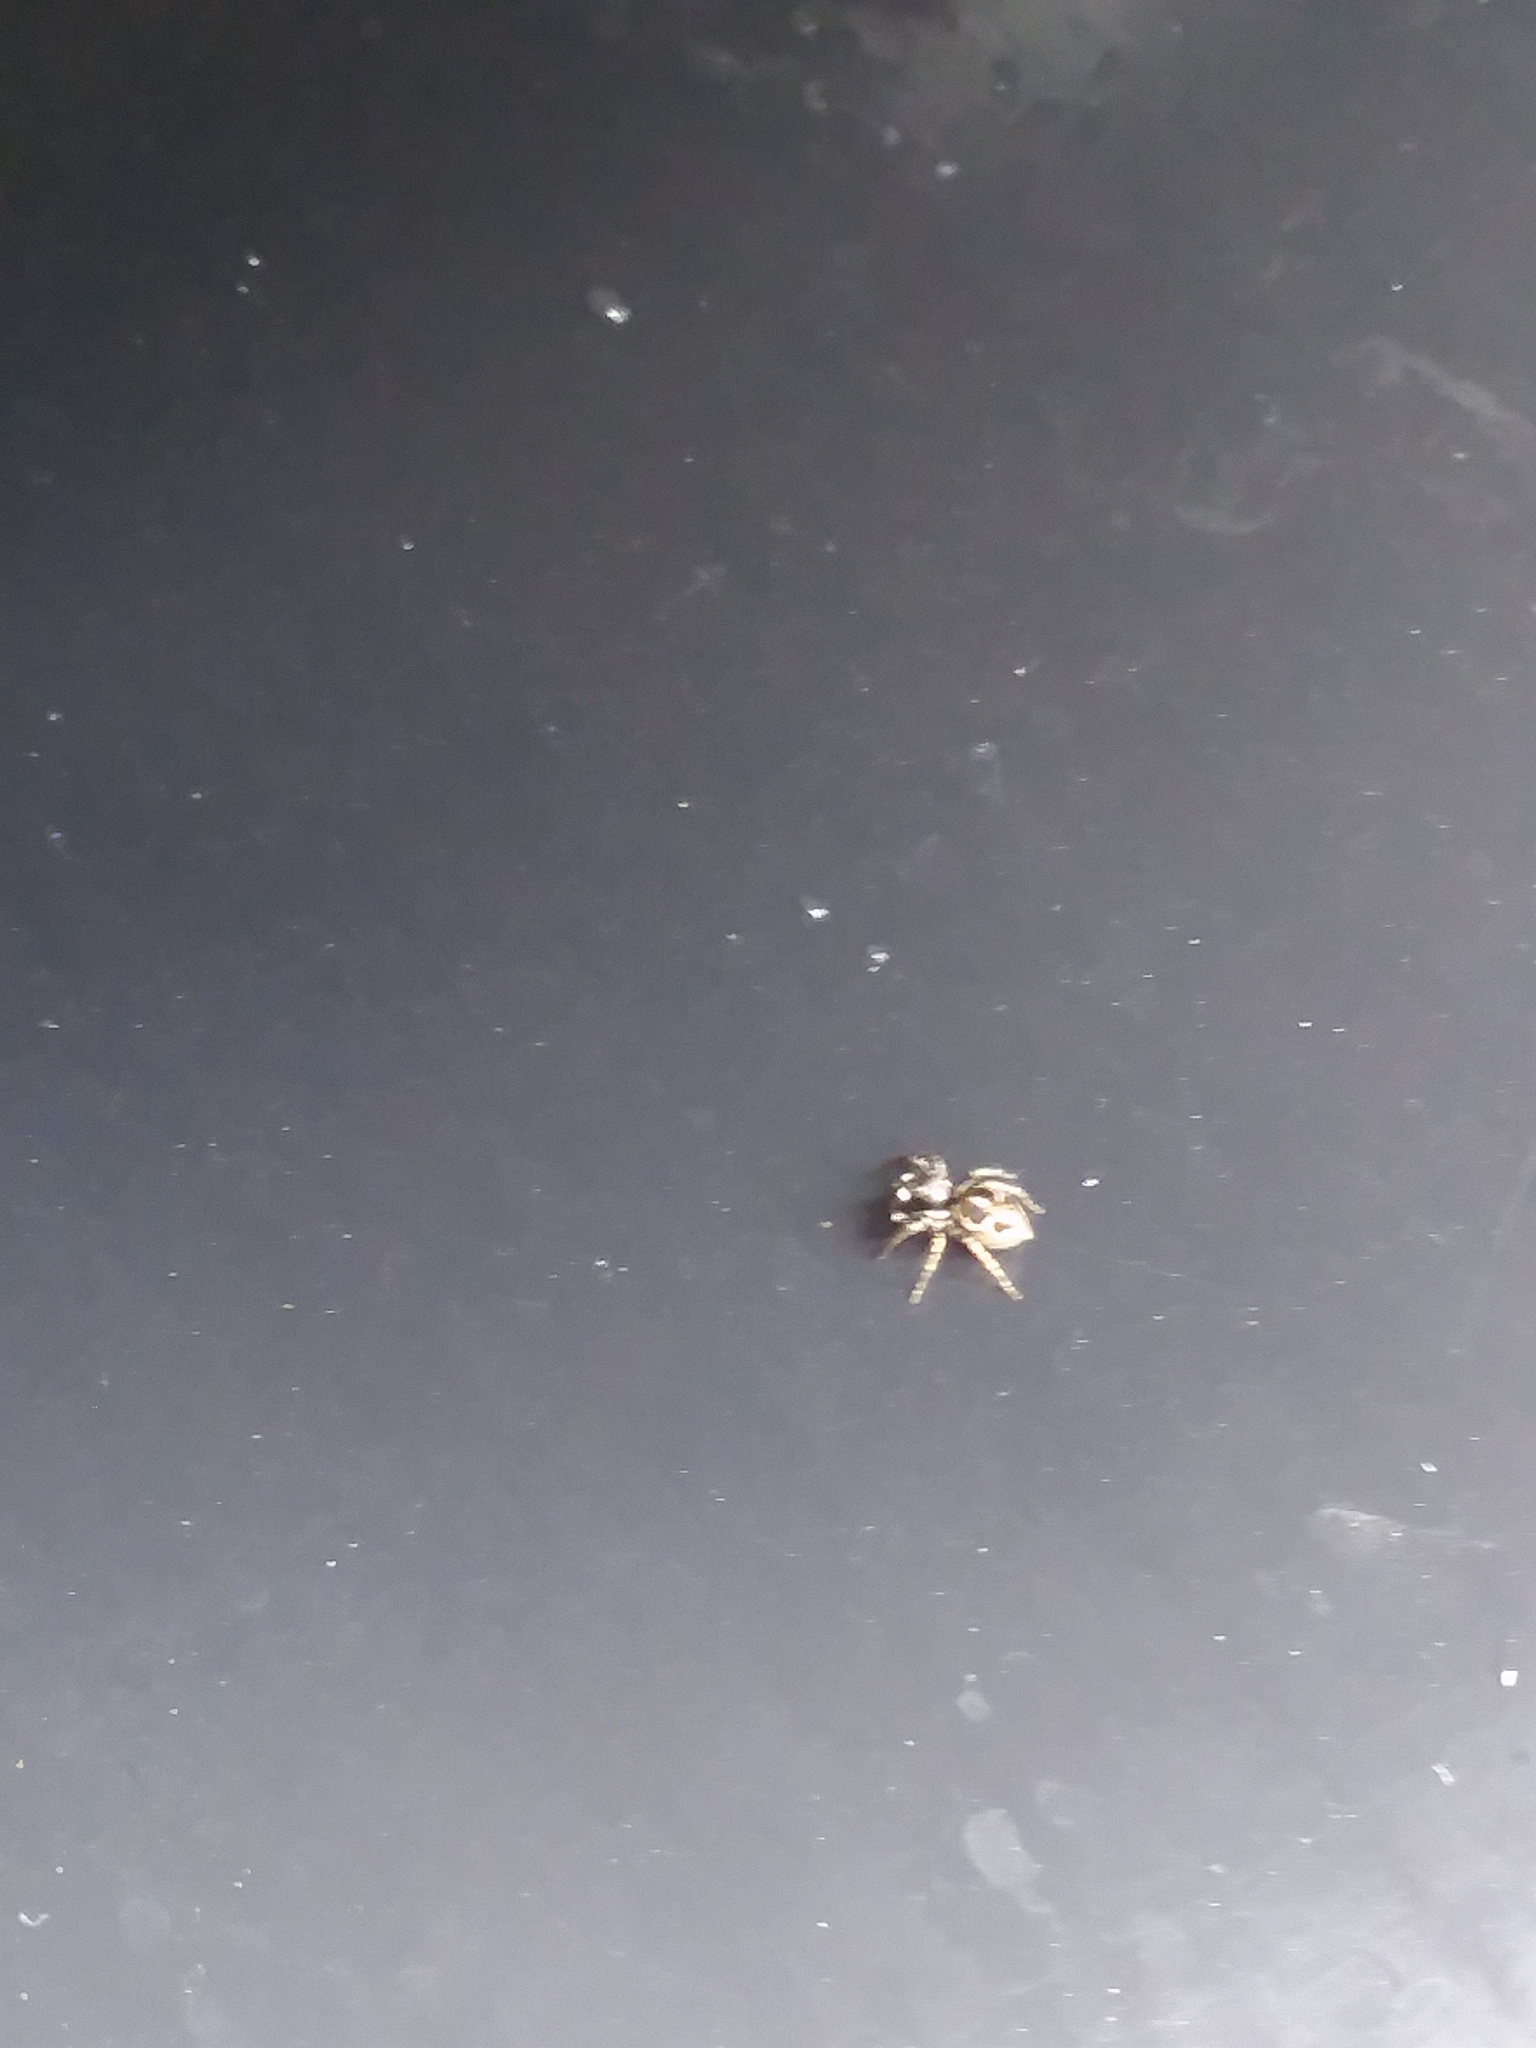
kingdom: Animalia
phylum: Arthropoda
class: Arachnida
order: Araneae
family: Salticidae
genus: Anasaitis
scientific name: Anasaitis canosa
